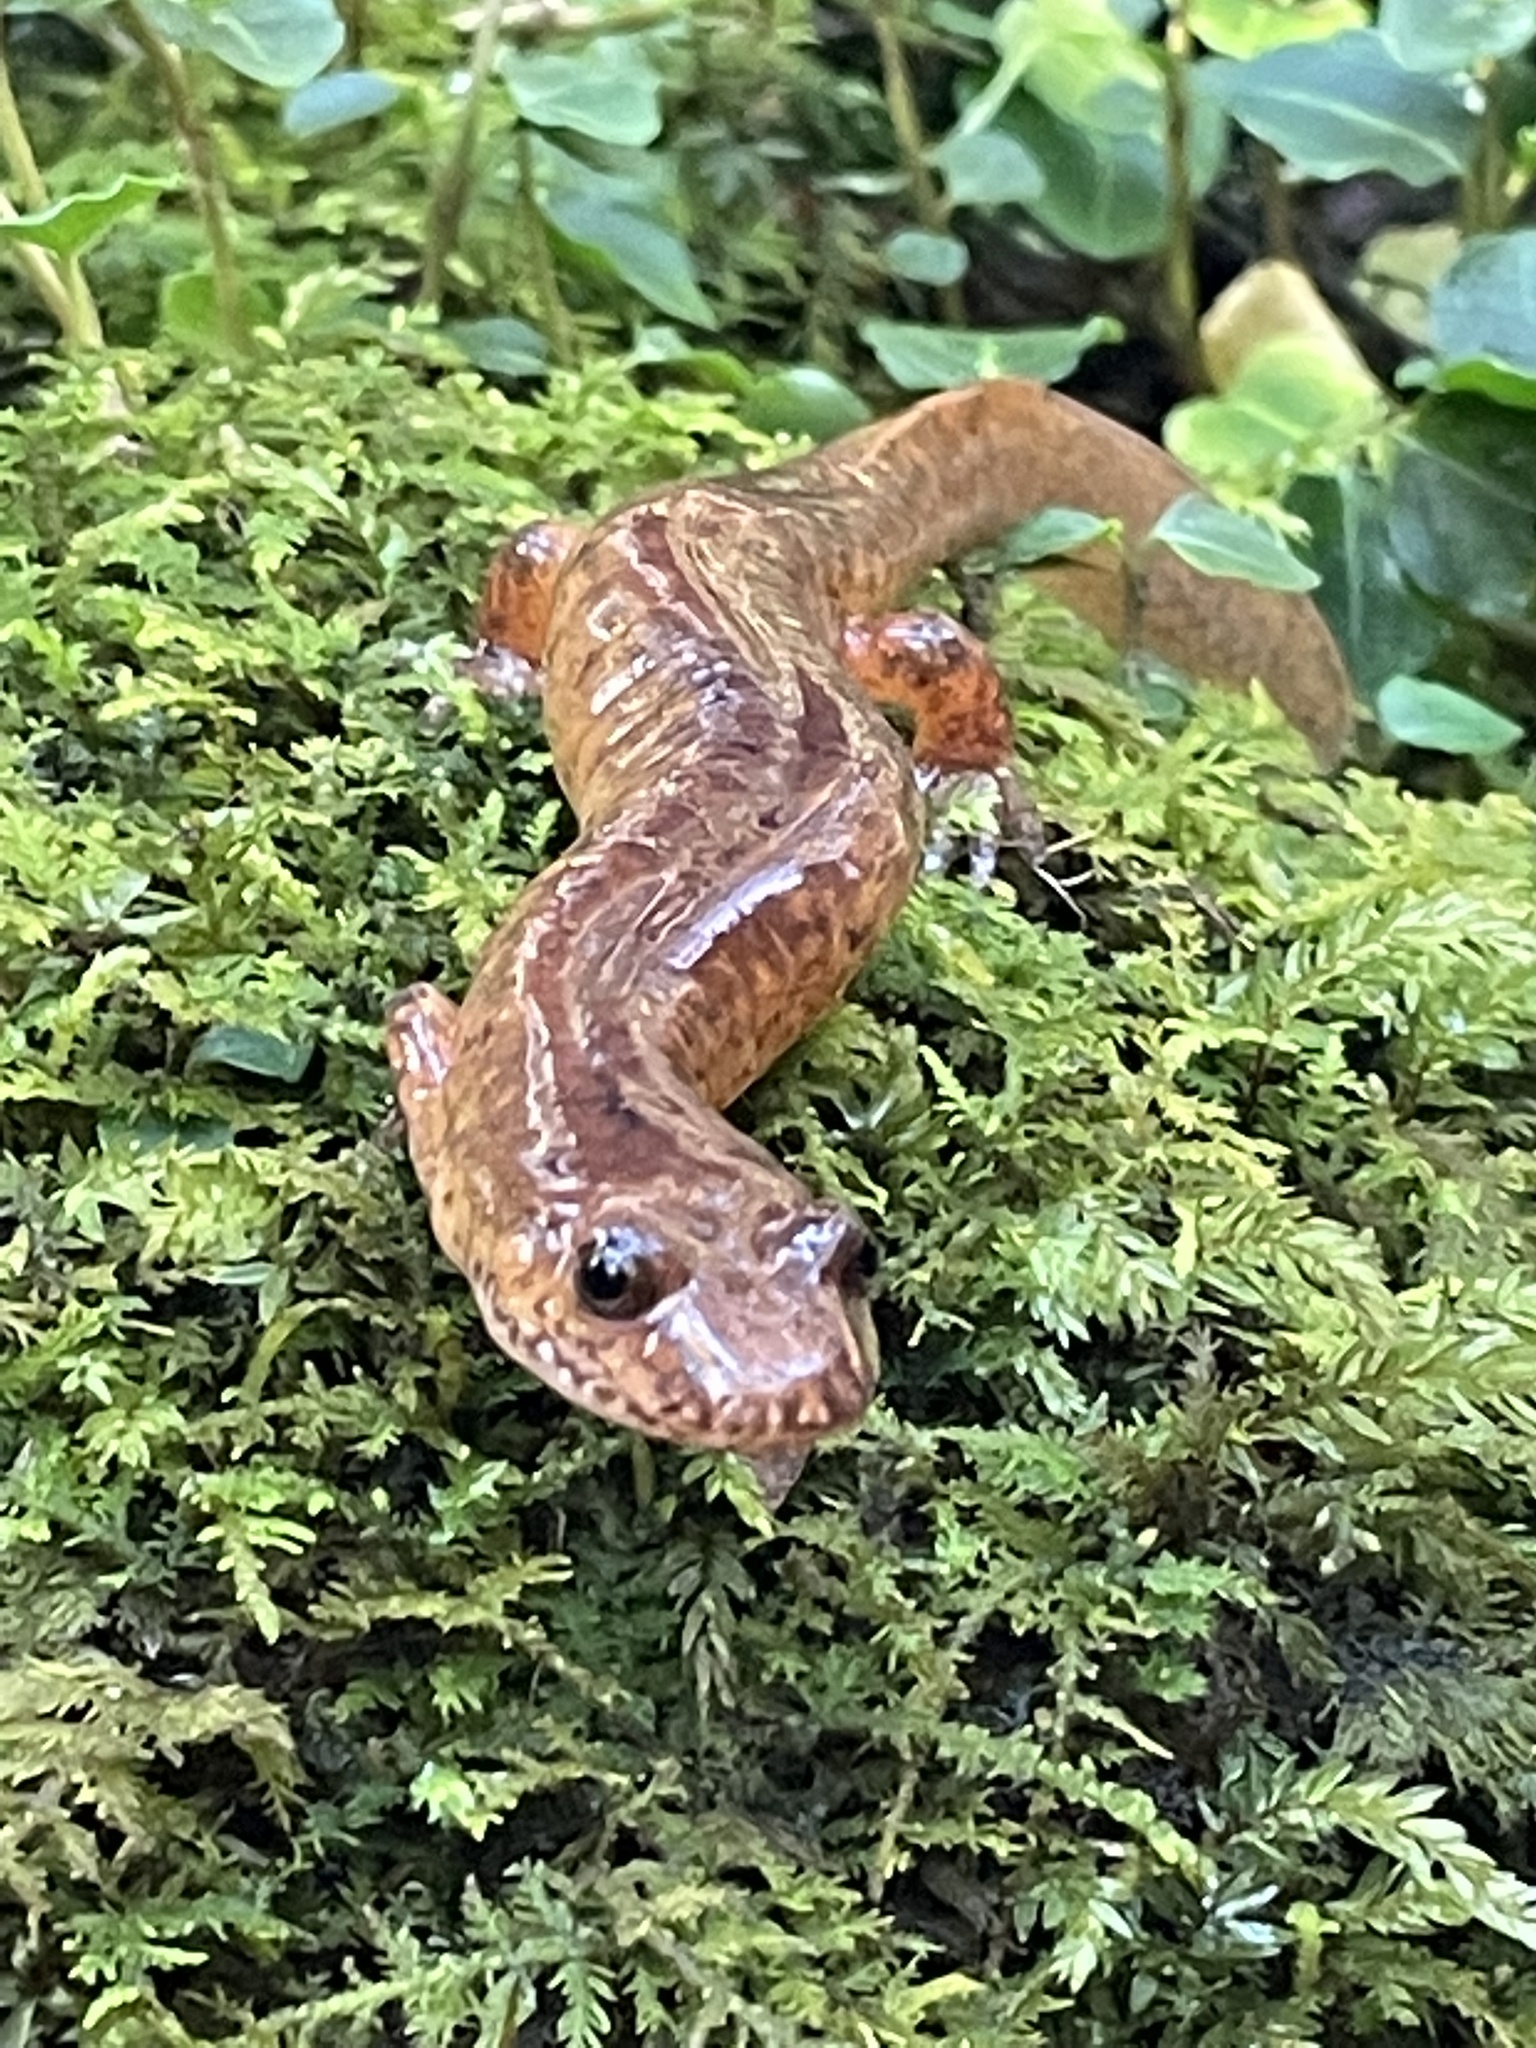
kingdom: Animalia
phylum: Chordata
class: Amphibia
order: Caudata
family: Plethodontidae
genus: Gyrinophilus
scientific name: Gyrinophilus porphyriticus
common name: Spring salamander
